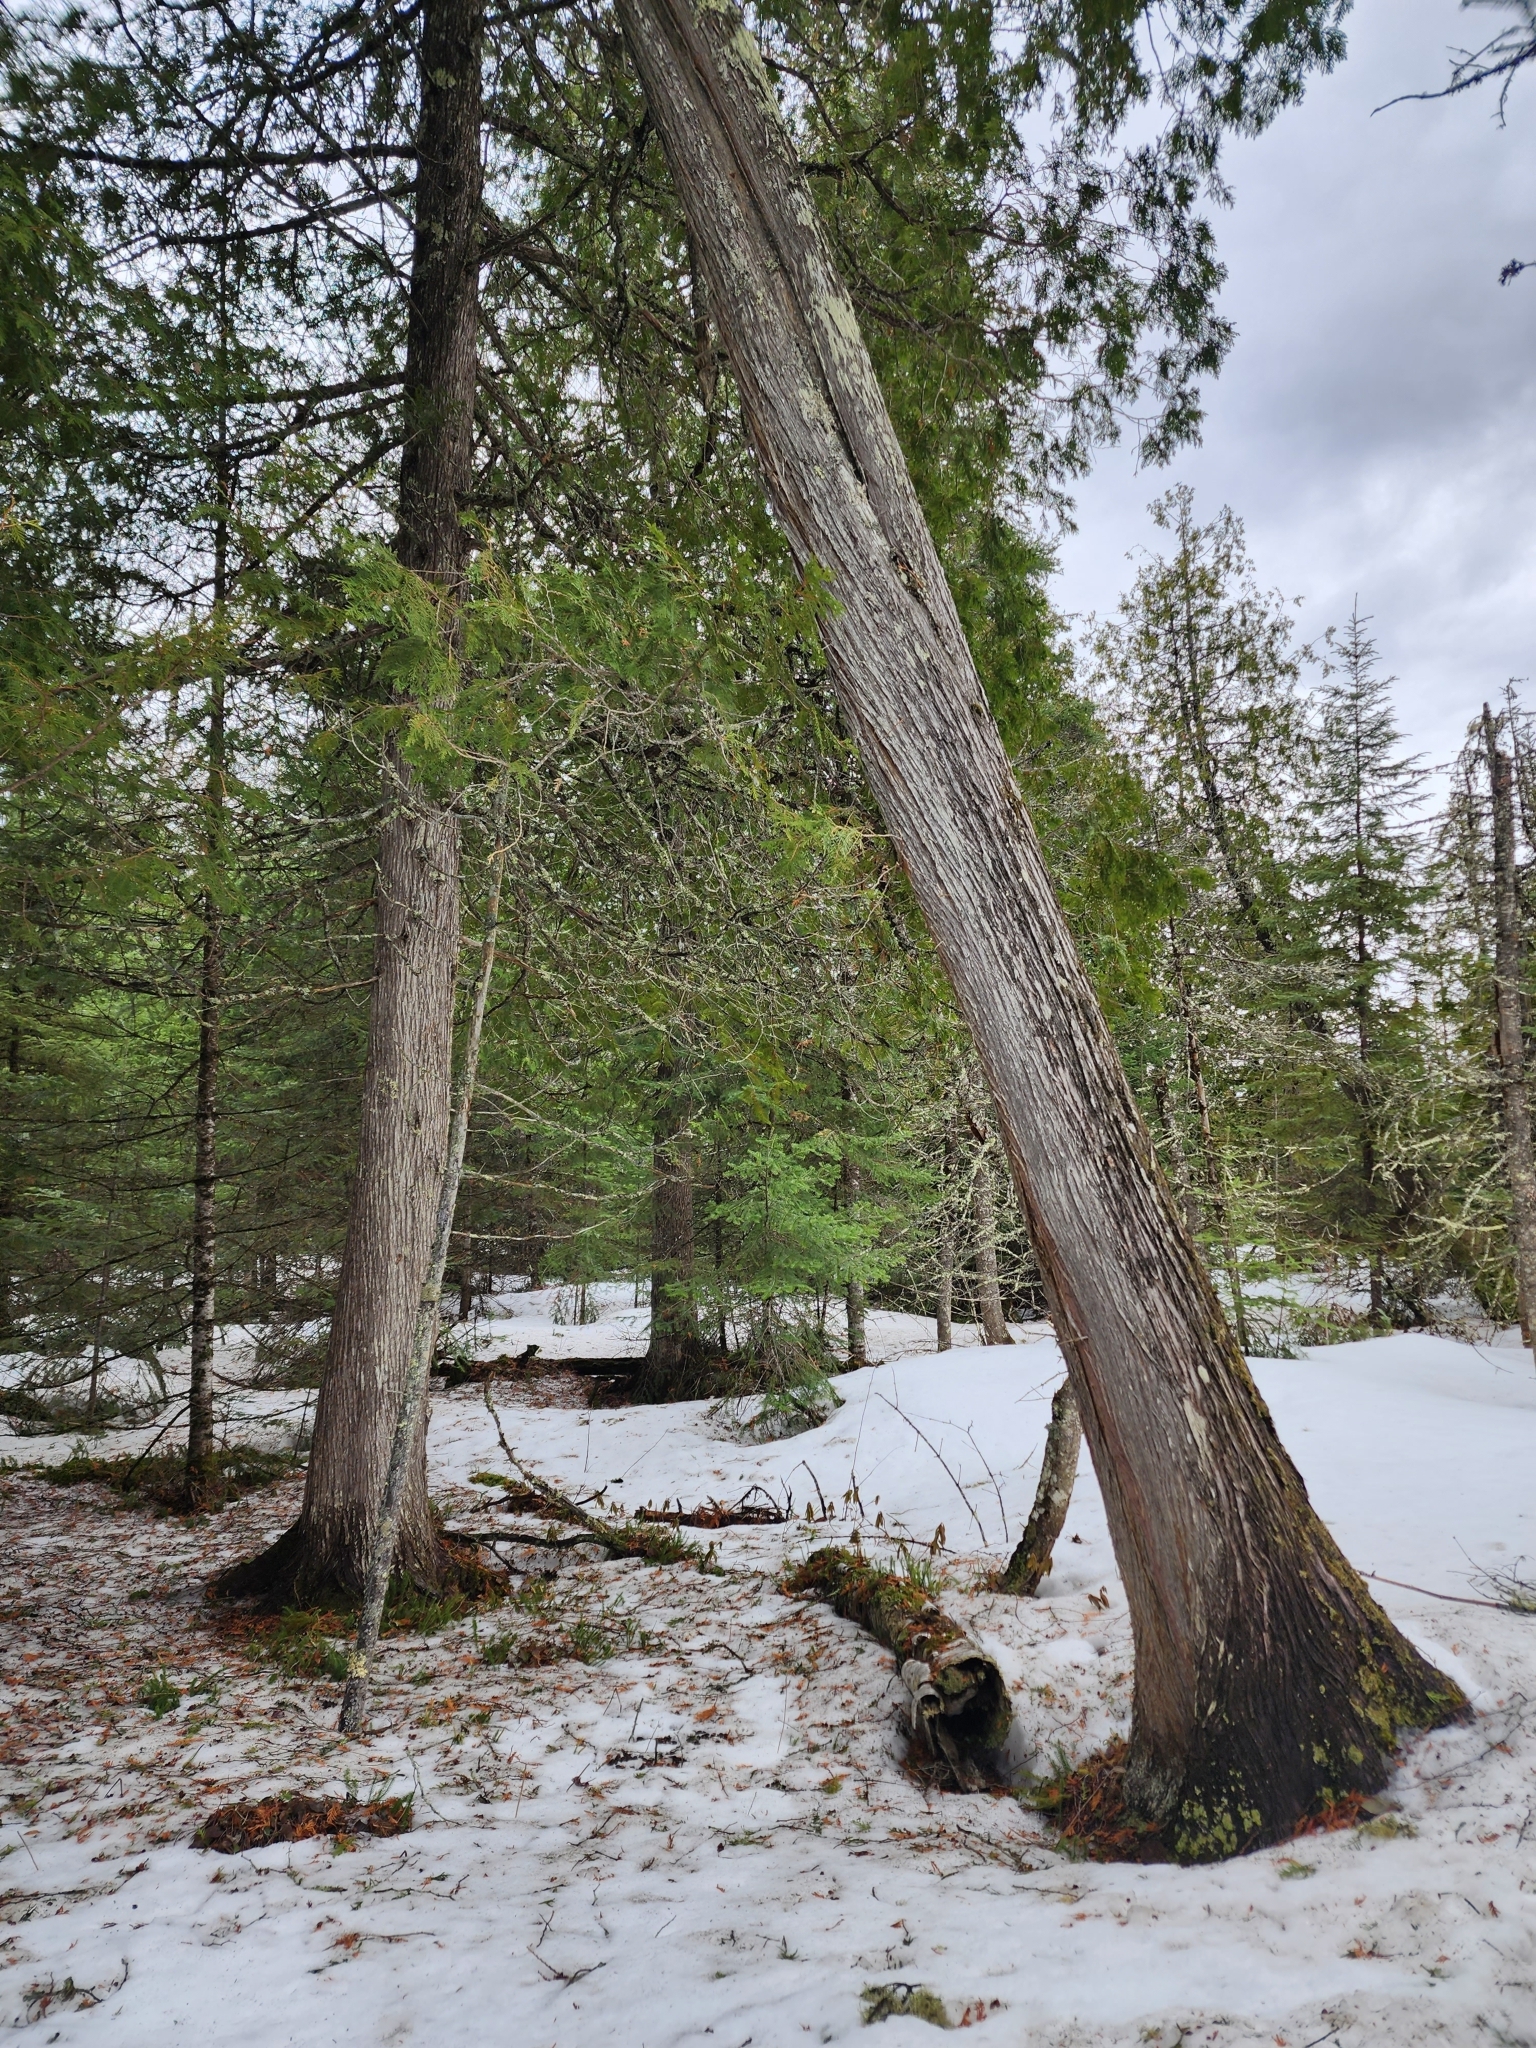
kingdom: Plantae
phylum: Tracheophyta
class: Pinopsida
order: Pinales
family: Cupressaceae
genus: Thuja
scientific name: Thuja occidentalis
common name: Northern white-cedar
